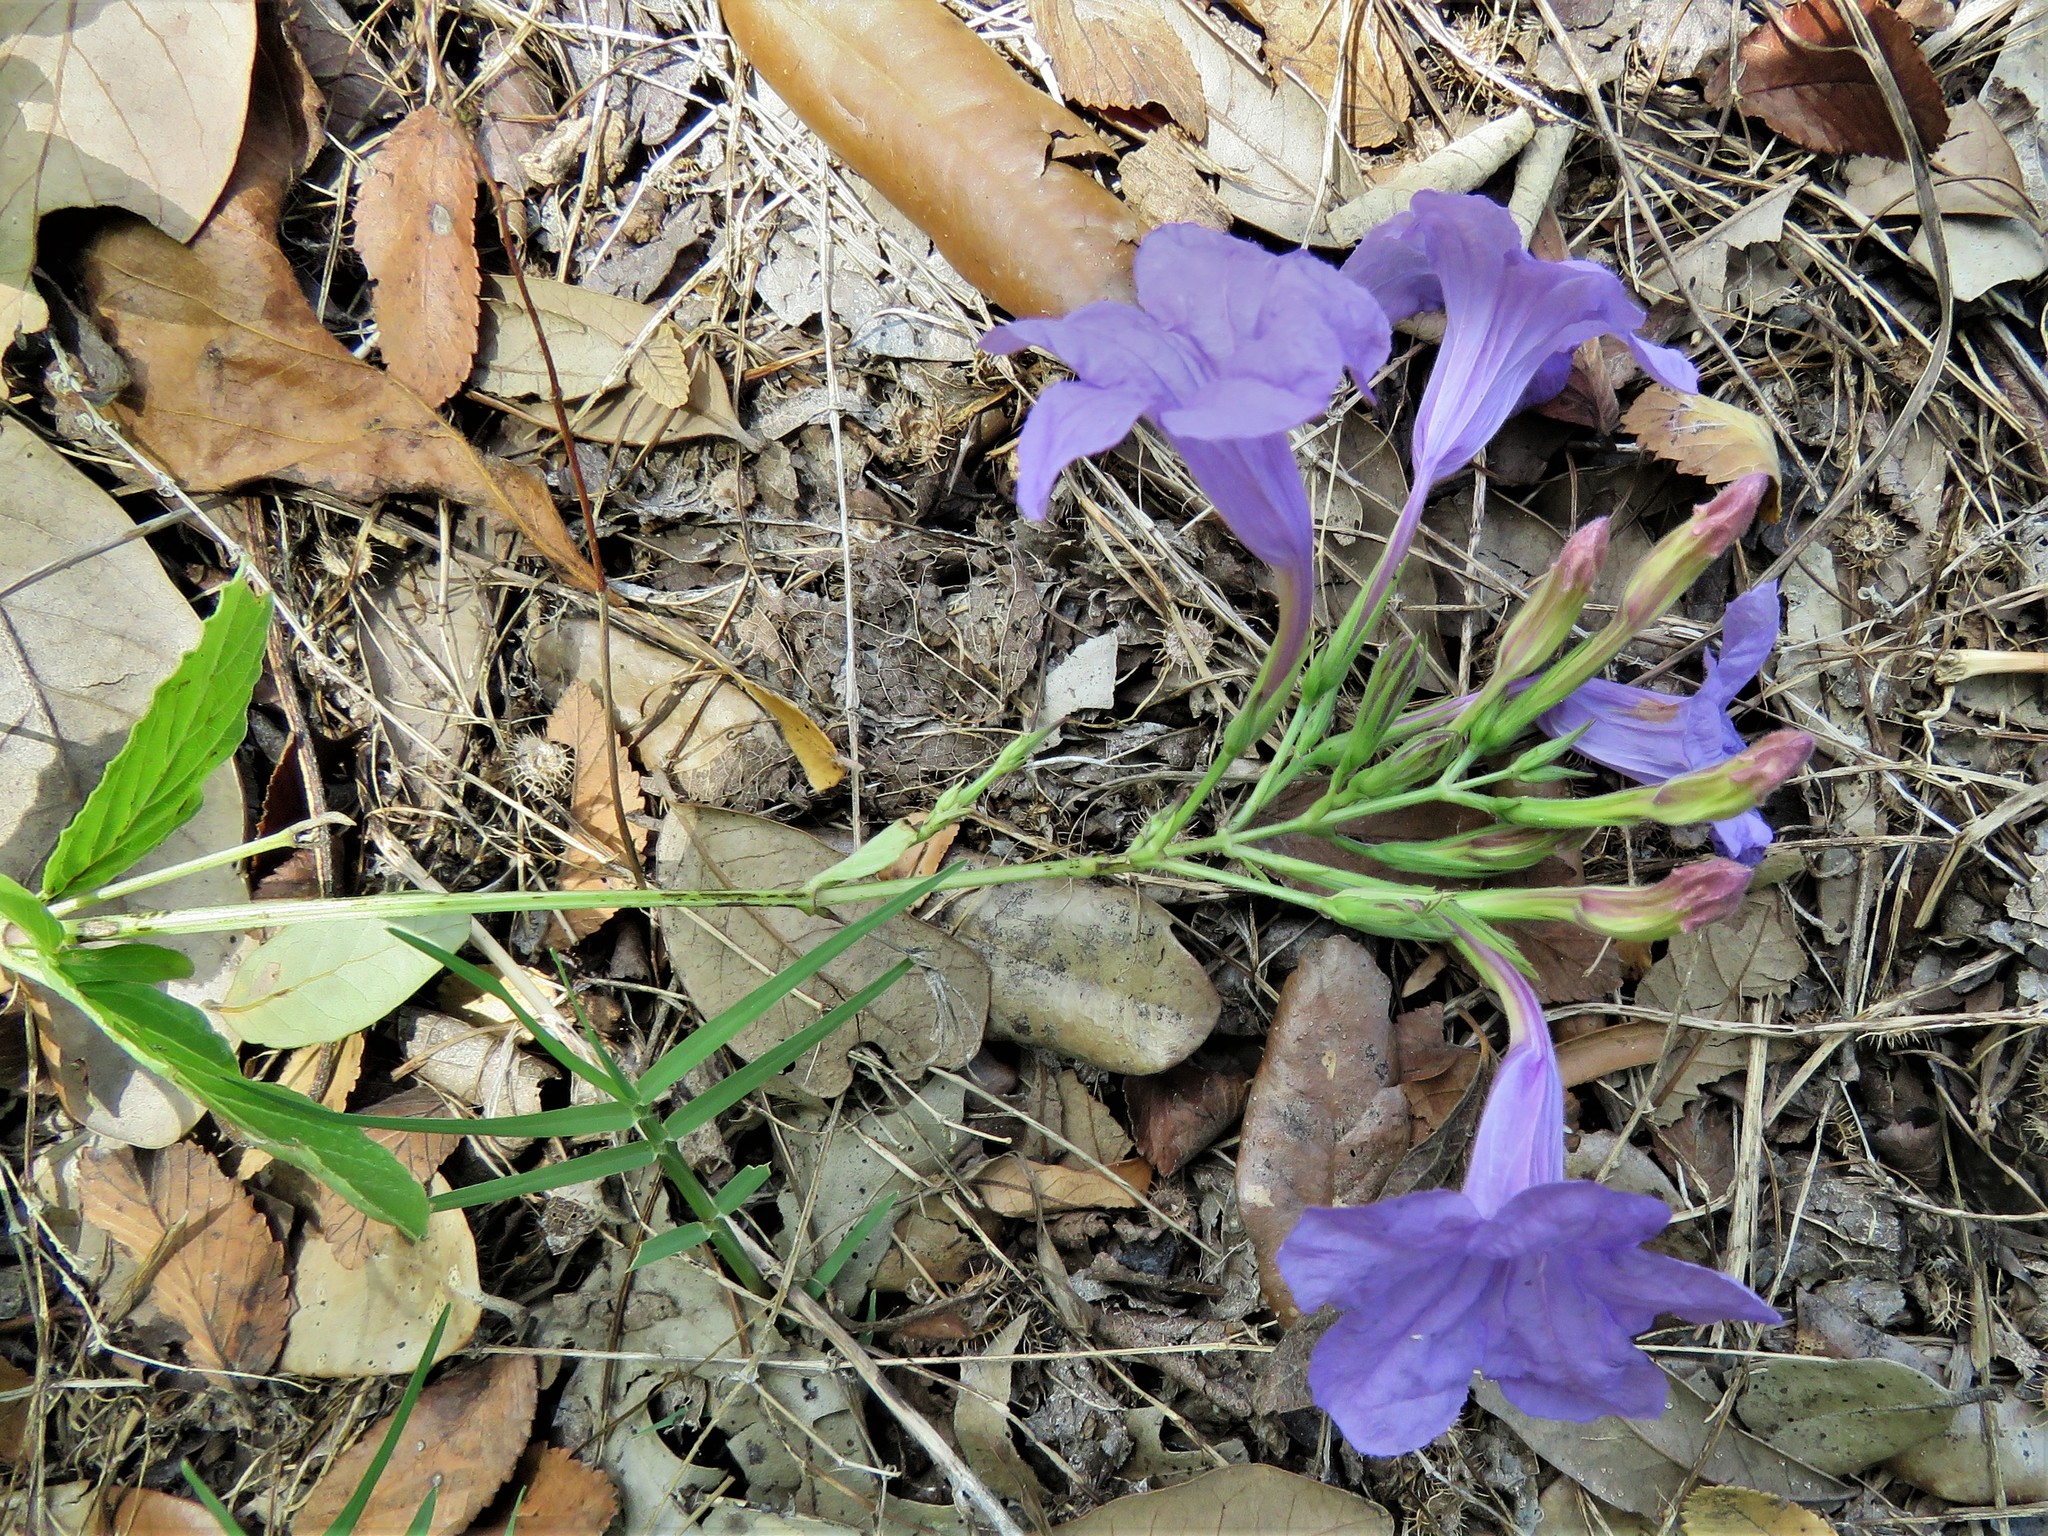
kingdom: Plantae
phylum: Tracheophyta
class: Magnoliopsida
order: Lamiales
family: Acanthaceae
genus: Ruellia
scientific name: Ruellia ciliatiflora
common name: Hairyflower wild petunia
